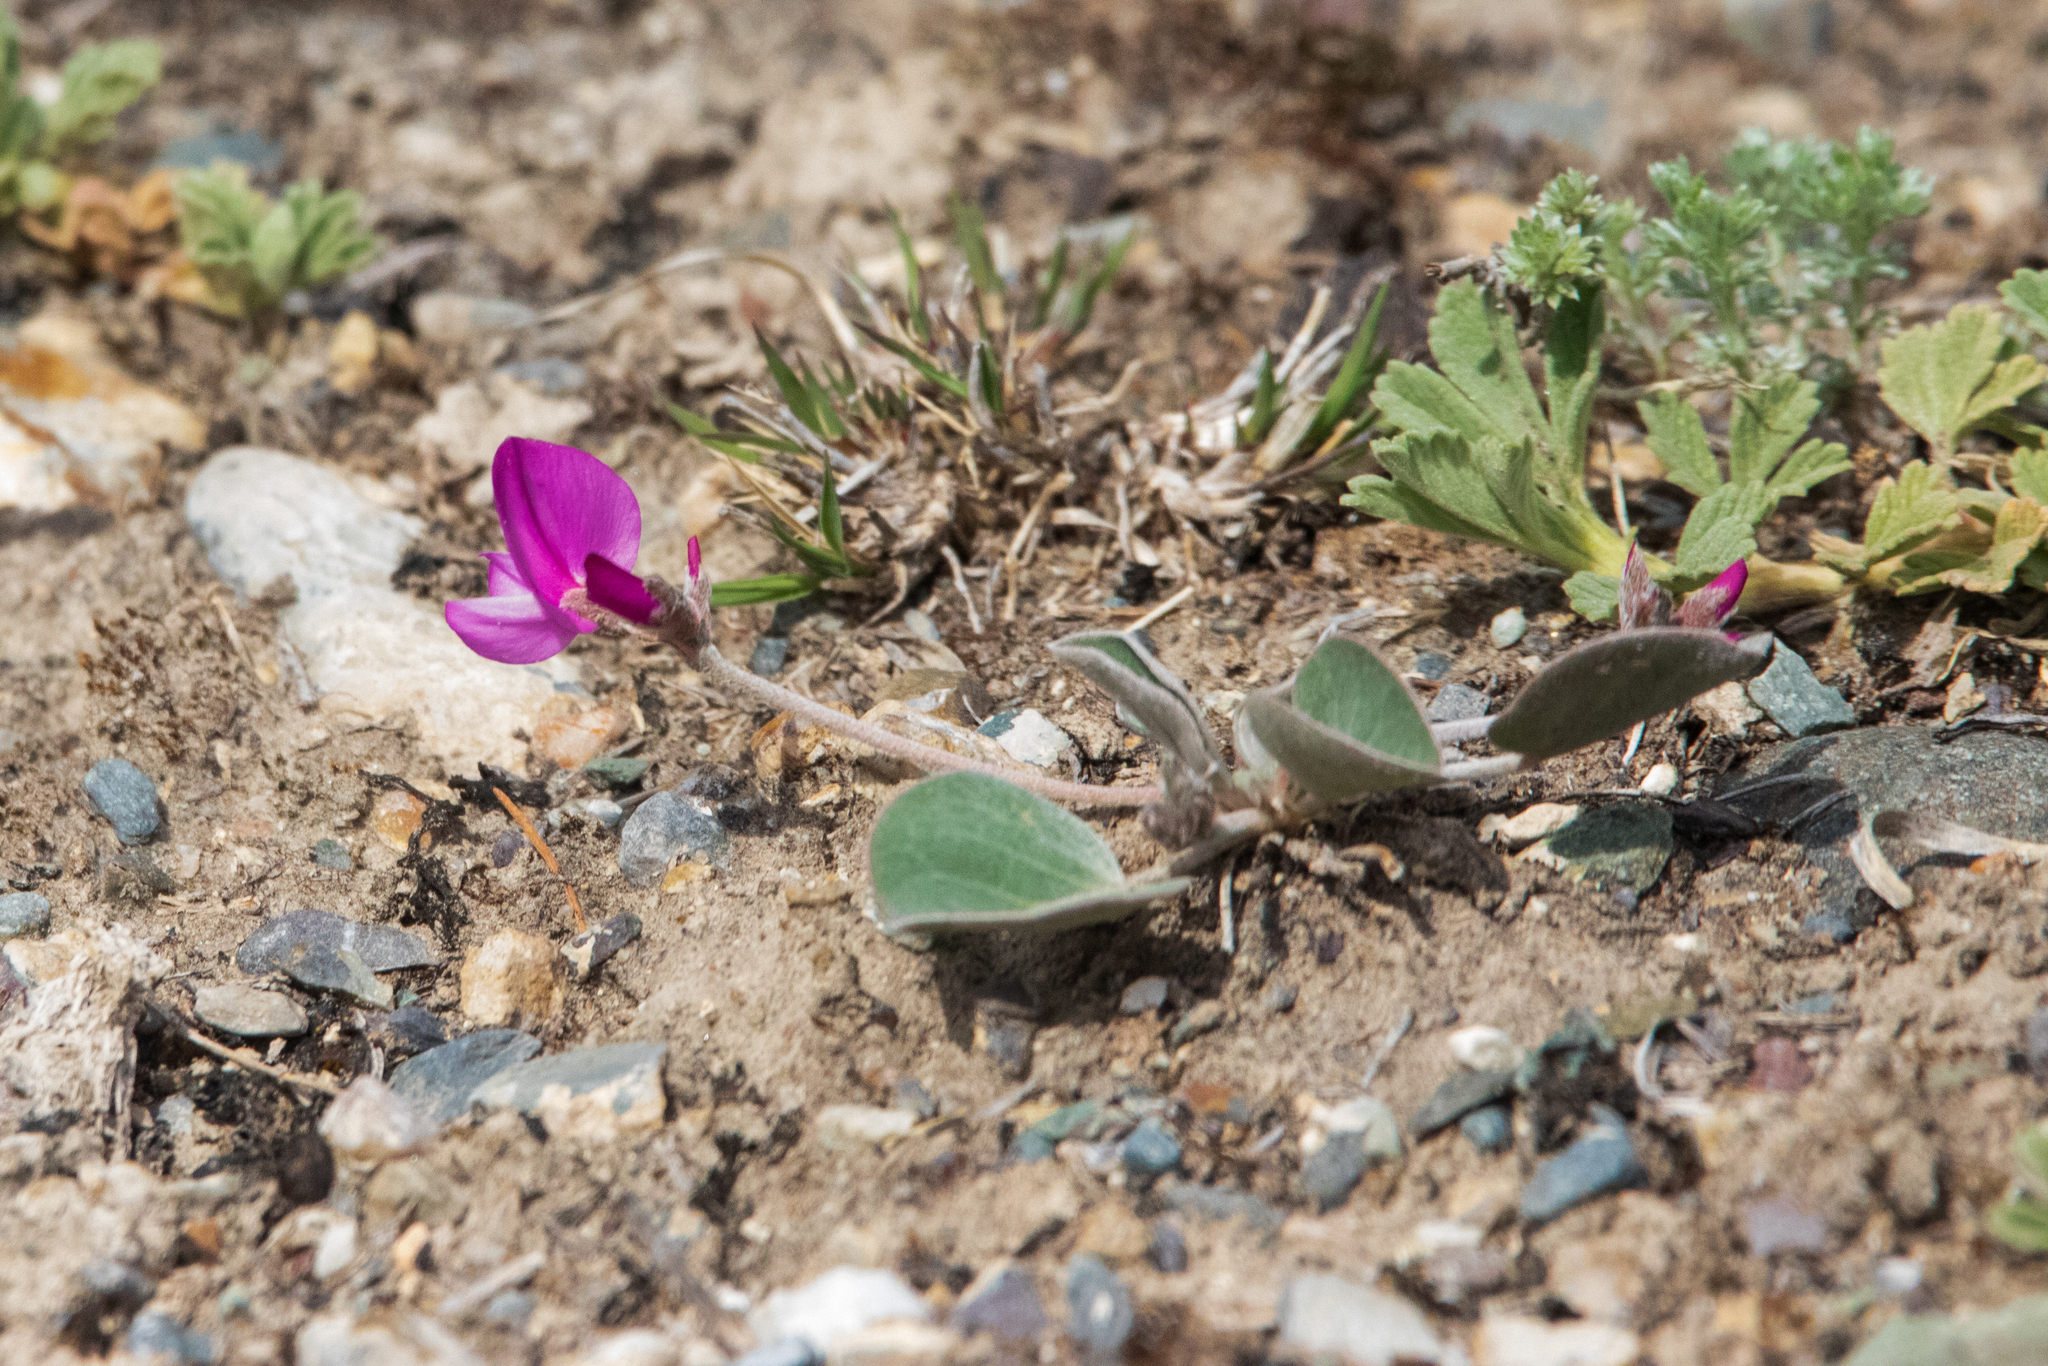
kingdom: Plantae
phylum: Tracheophyta
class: Magnoliopsida
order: Fabales
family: Fabaceae
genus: Gueldenstaedtia
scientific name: Gueldenstaedtia monophylla
